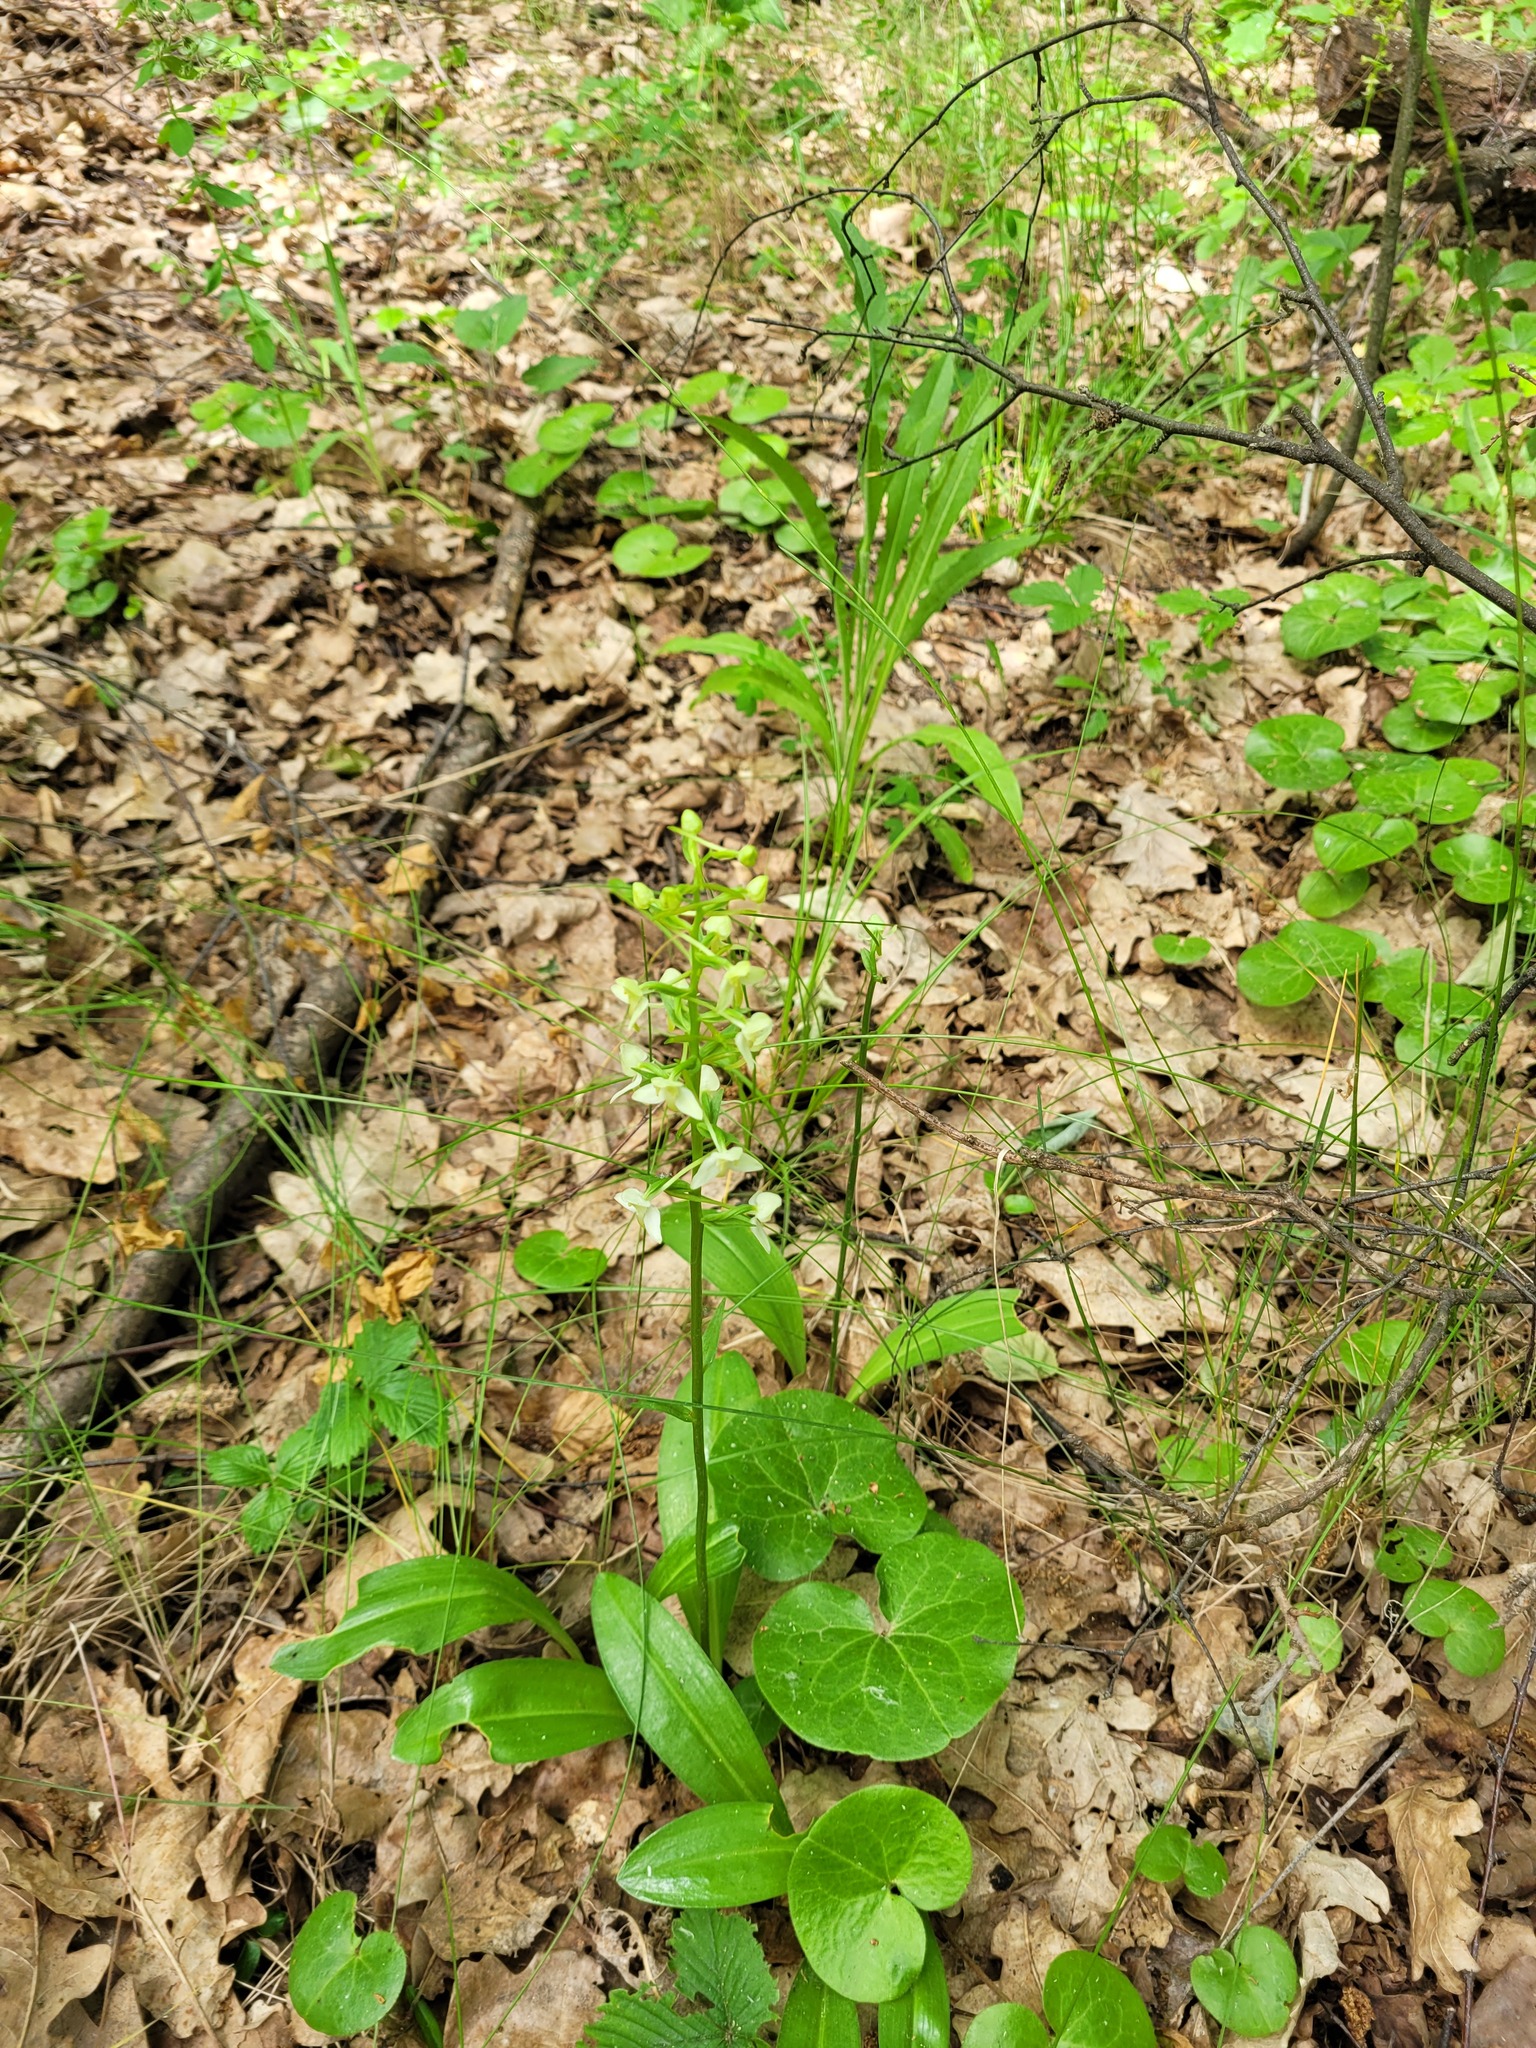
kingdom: Plantae
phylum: Tracheophyta
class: Liliopsida
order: Asparagales
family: Orchidaceae
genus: Platanthera
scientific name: Platanthera chlorantha
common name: Greater butterfly-orchid
